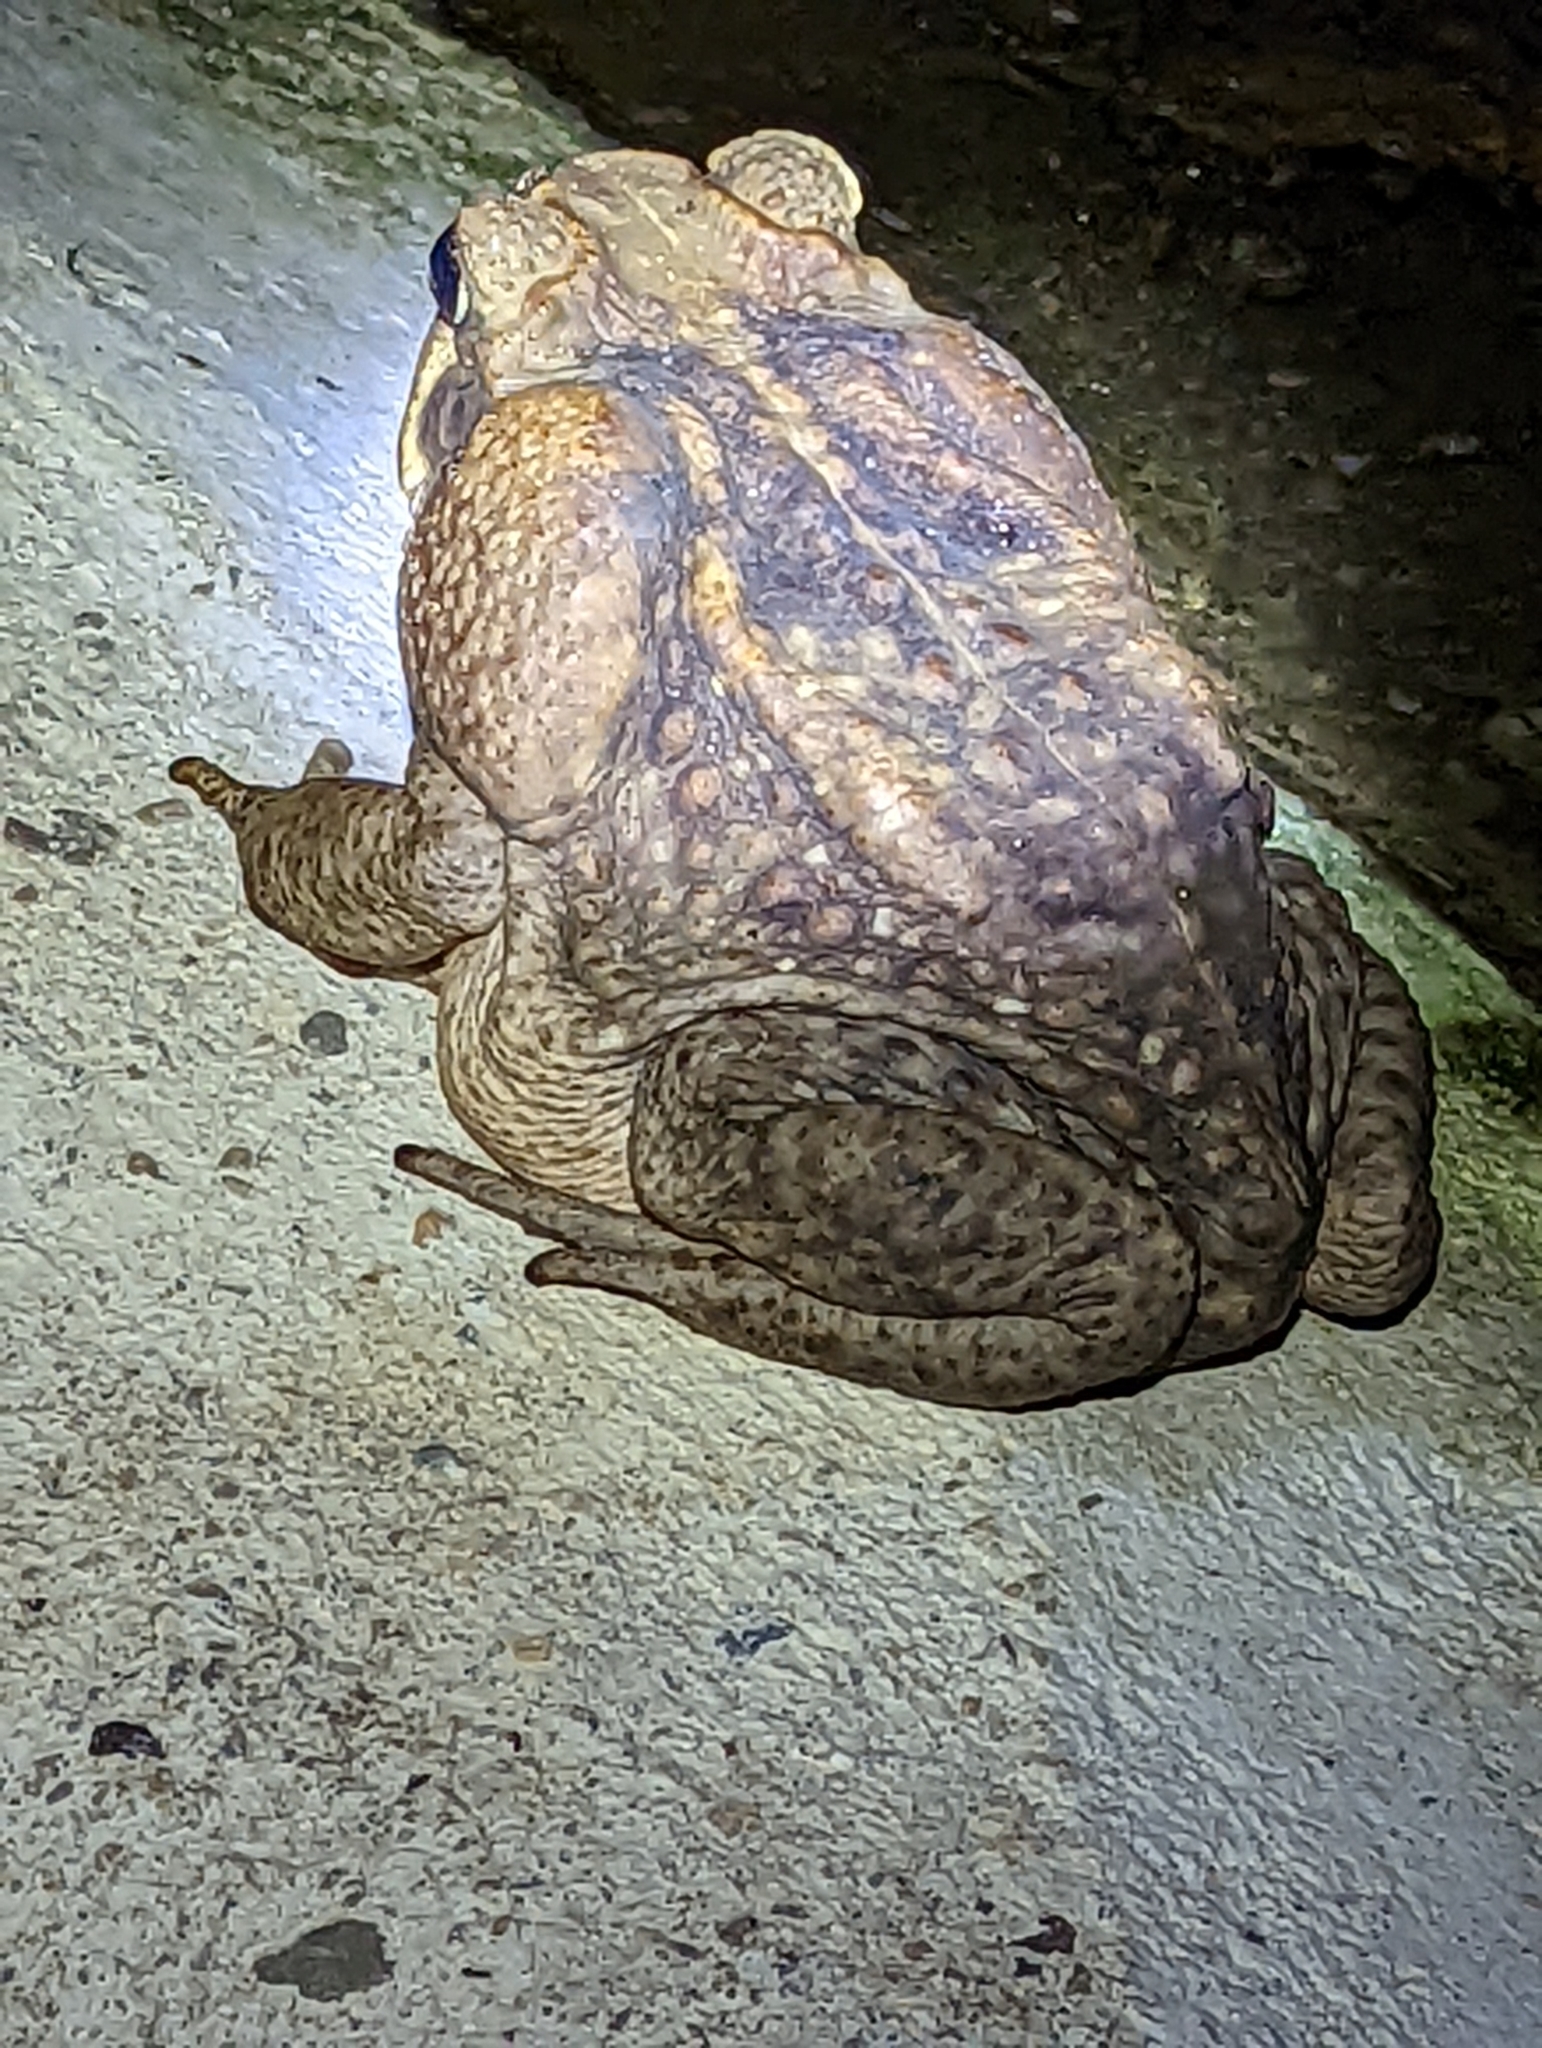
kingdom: Animalia
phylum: Chordata
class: Amphibia
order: Anura
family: Bufonidae
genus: Rhinella
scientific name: Rhinella horribilis
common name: Mesoamerican cane toad
